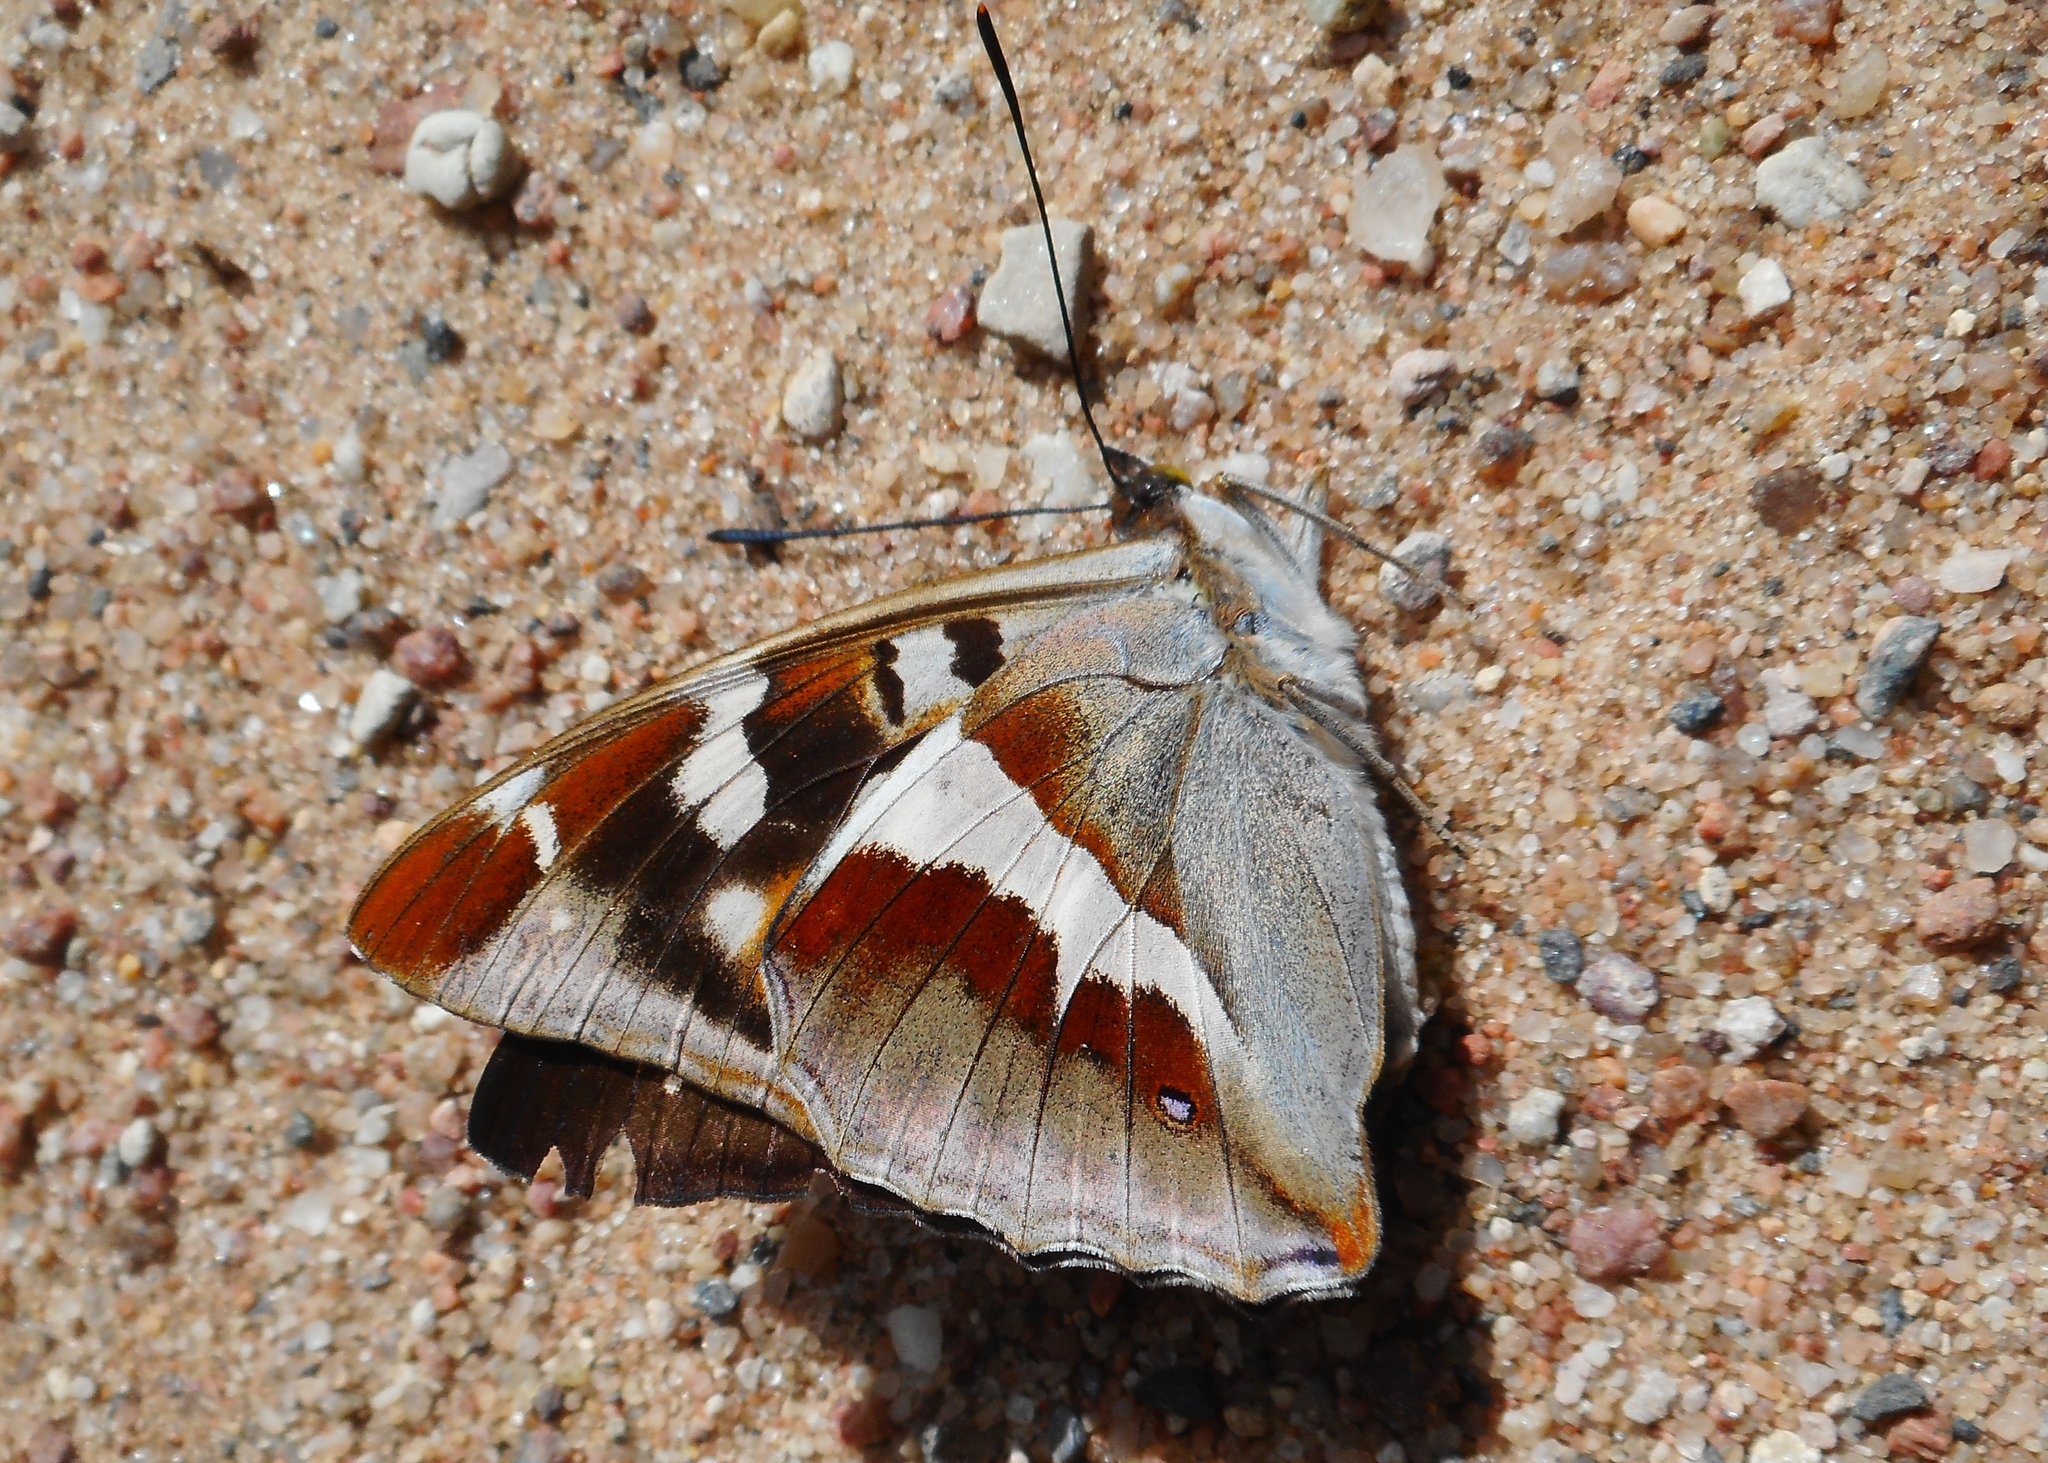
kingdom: Animalia
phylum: Arthropoda
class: Insecta
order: Lepidoptera
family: Nymphalidae
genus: Apatura
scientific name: Apatura iris
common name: Purple emperor
